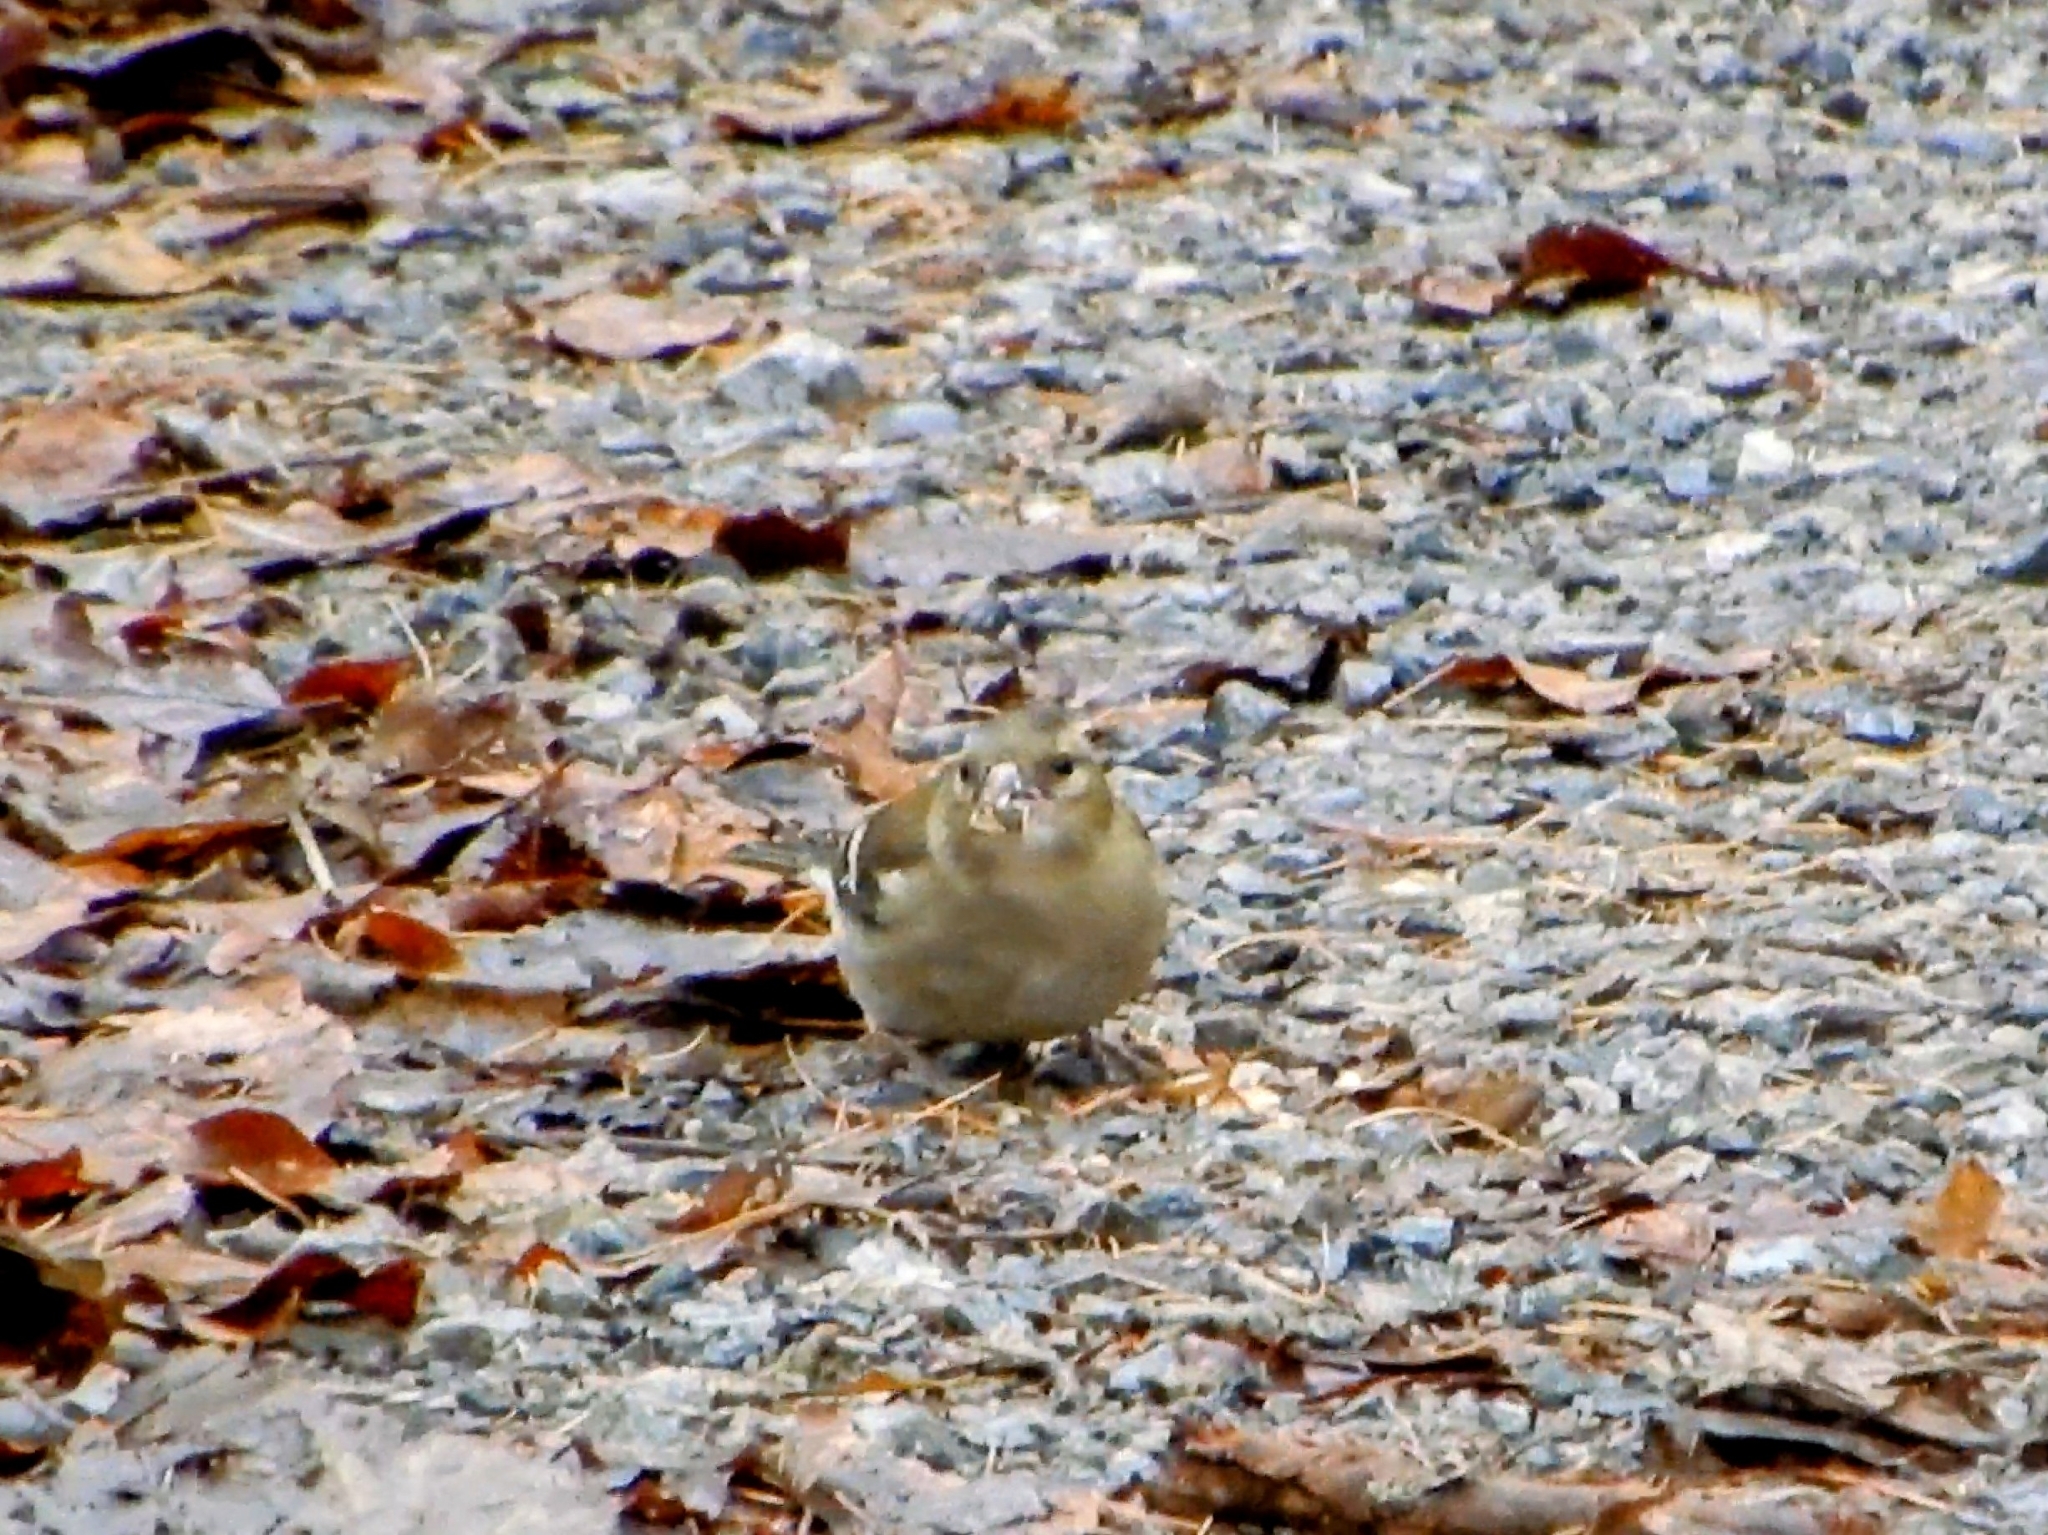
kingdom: Animalia
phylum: Chordata
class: Aves
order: Passeriformes
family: Fringillidae
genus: Fringilla
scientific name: Fringilla coelebs
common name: Common chaffinch
